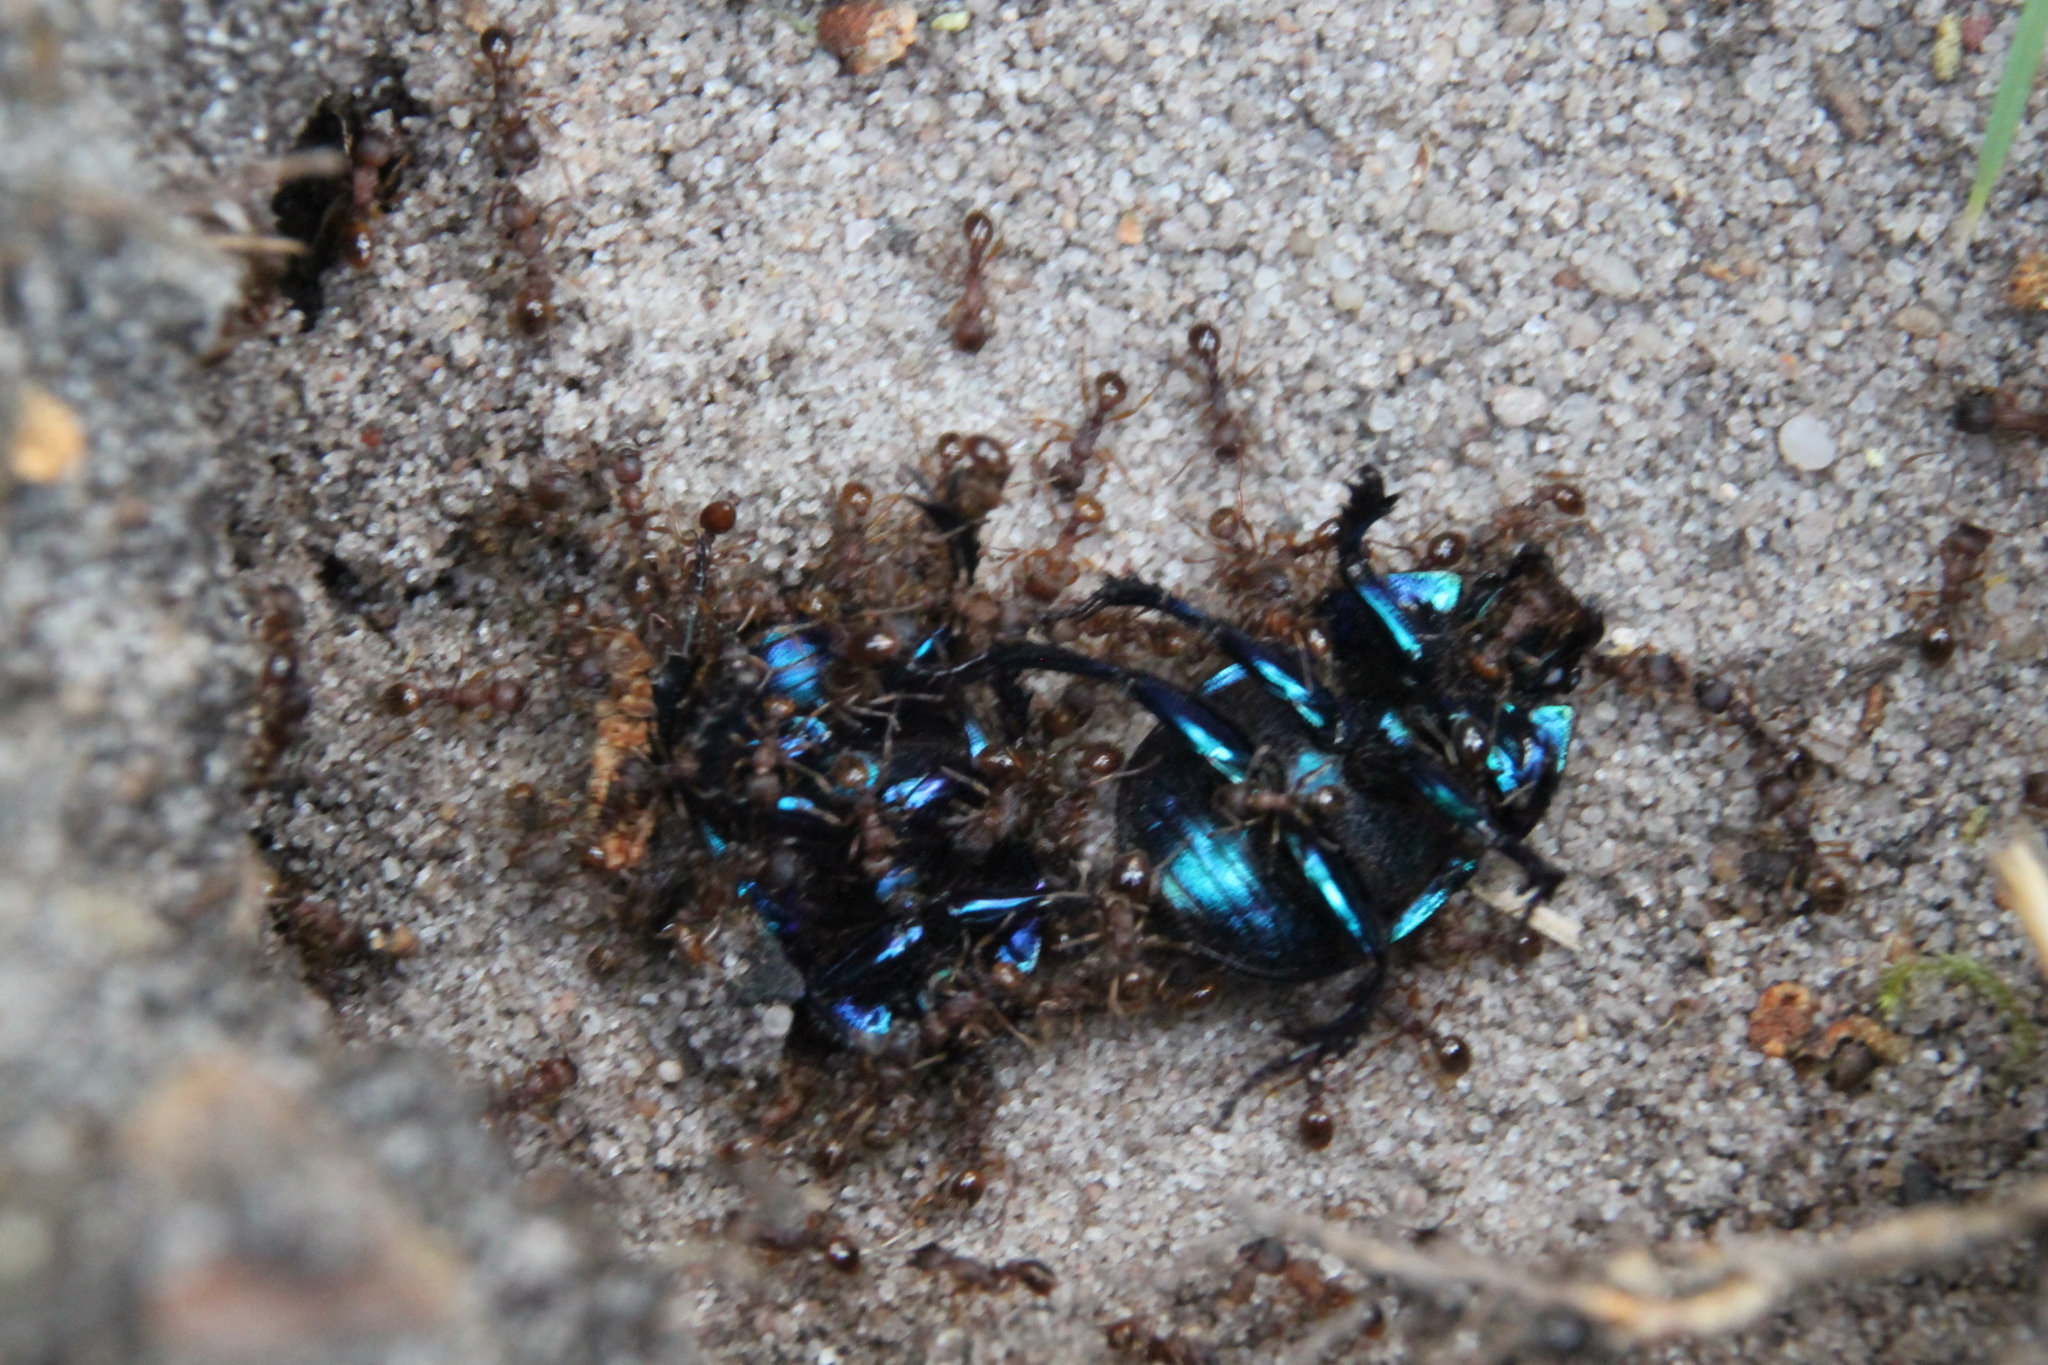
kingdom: Animalia
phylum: Arthropoda
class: Insecta
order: Coleoptera
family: Geotrupidae
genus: Anoplotrupes
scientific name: Anoplotrupes stercorosus
